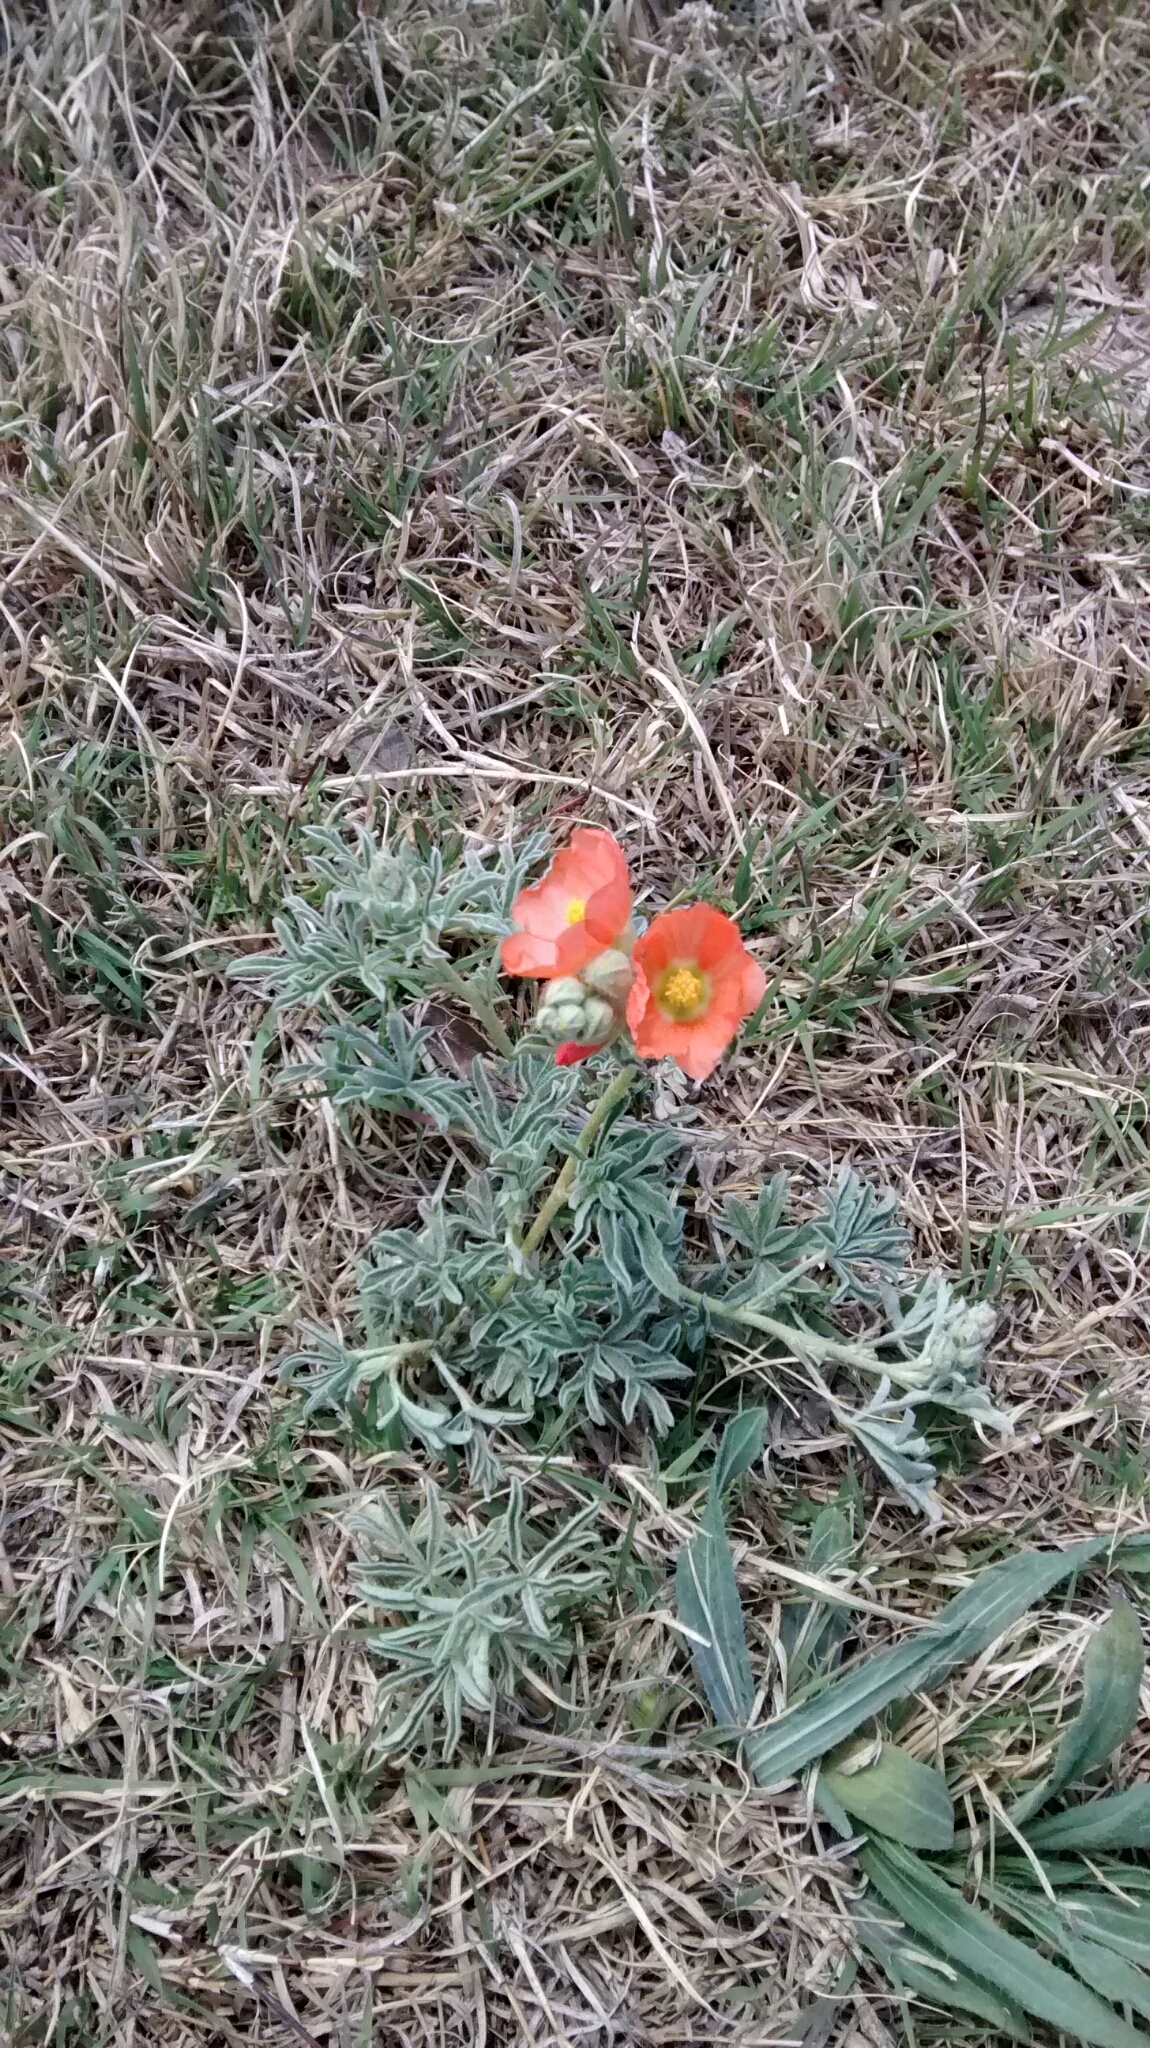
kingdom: Plantae
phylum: Tracheophyta
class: Magnoliopsida
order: Malvales
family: Malvaceae
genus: Sphaeralcea
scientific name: Sphaeralcea coccinea
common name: Moss-rose
